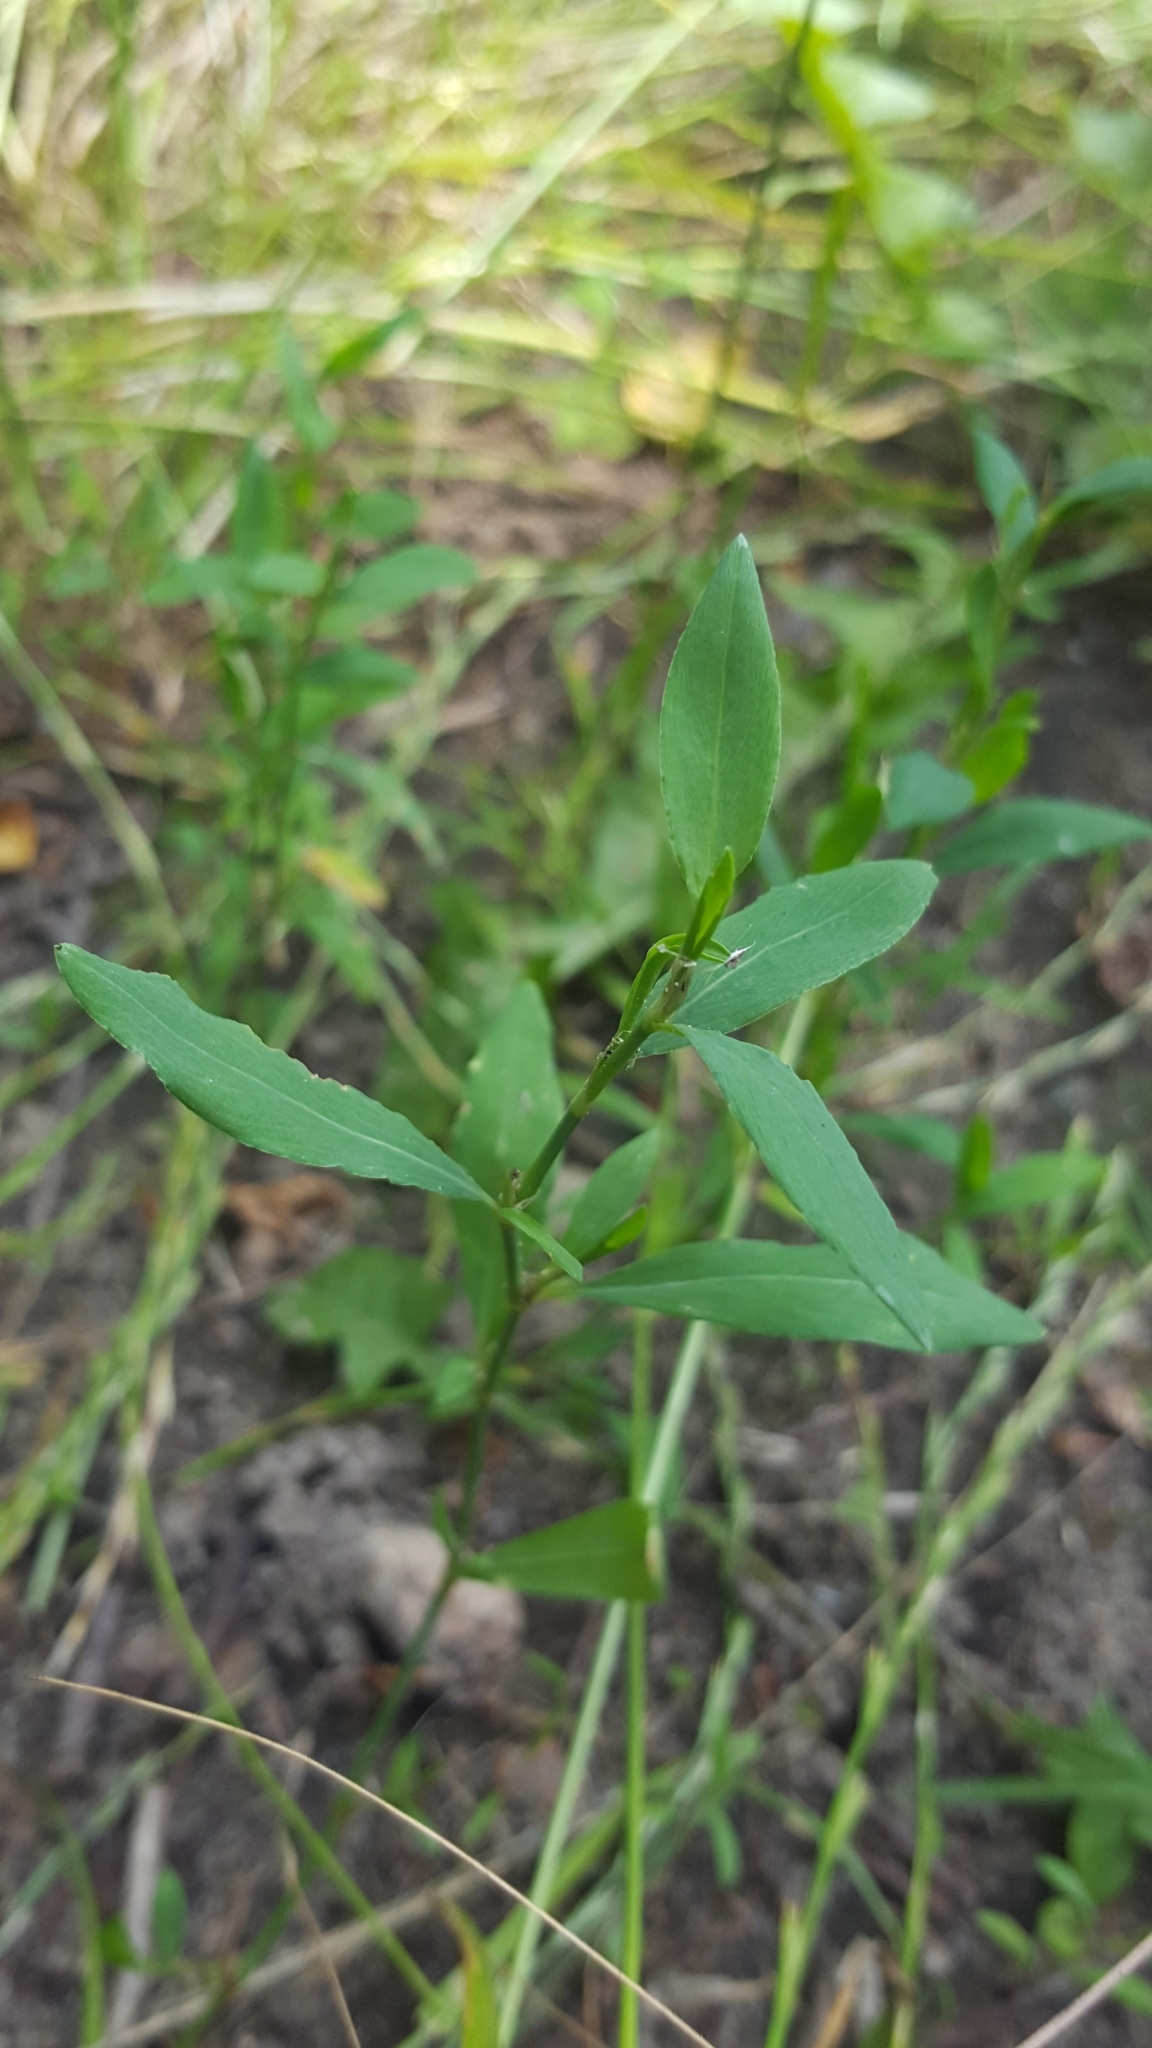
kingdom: Plantae
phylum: Tracheophyta
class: Magnoliopsida
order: Caryophyllales
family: Polygonaceae
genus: Polygonum
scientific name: Polygonum aviculare
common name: Prostrate knotweed
